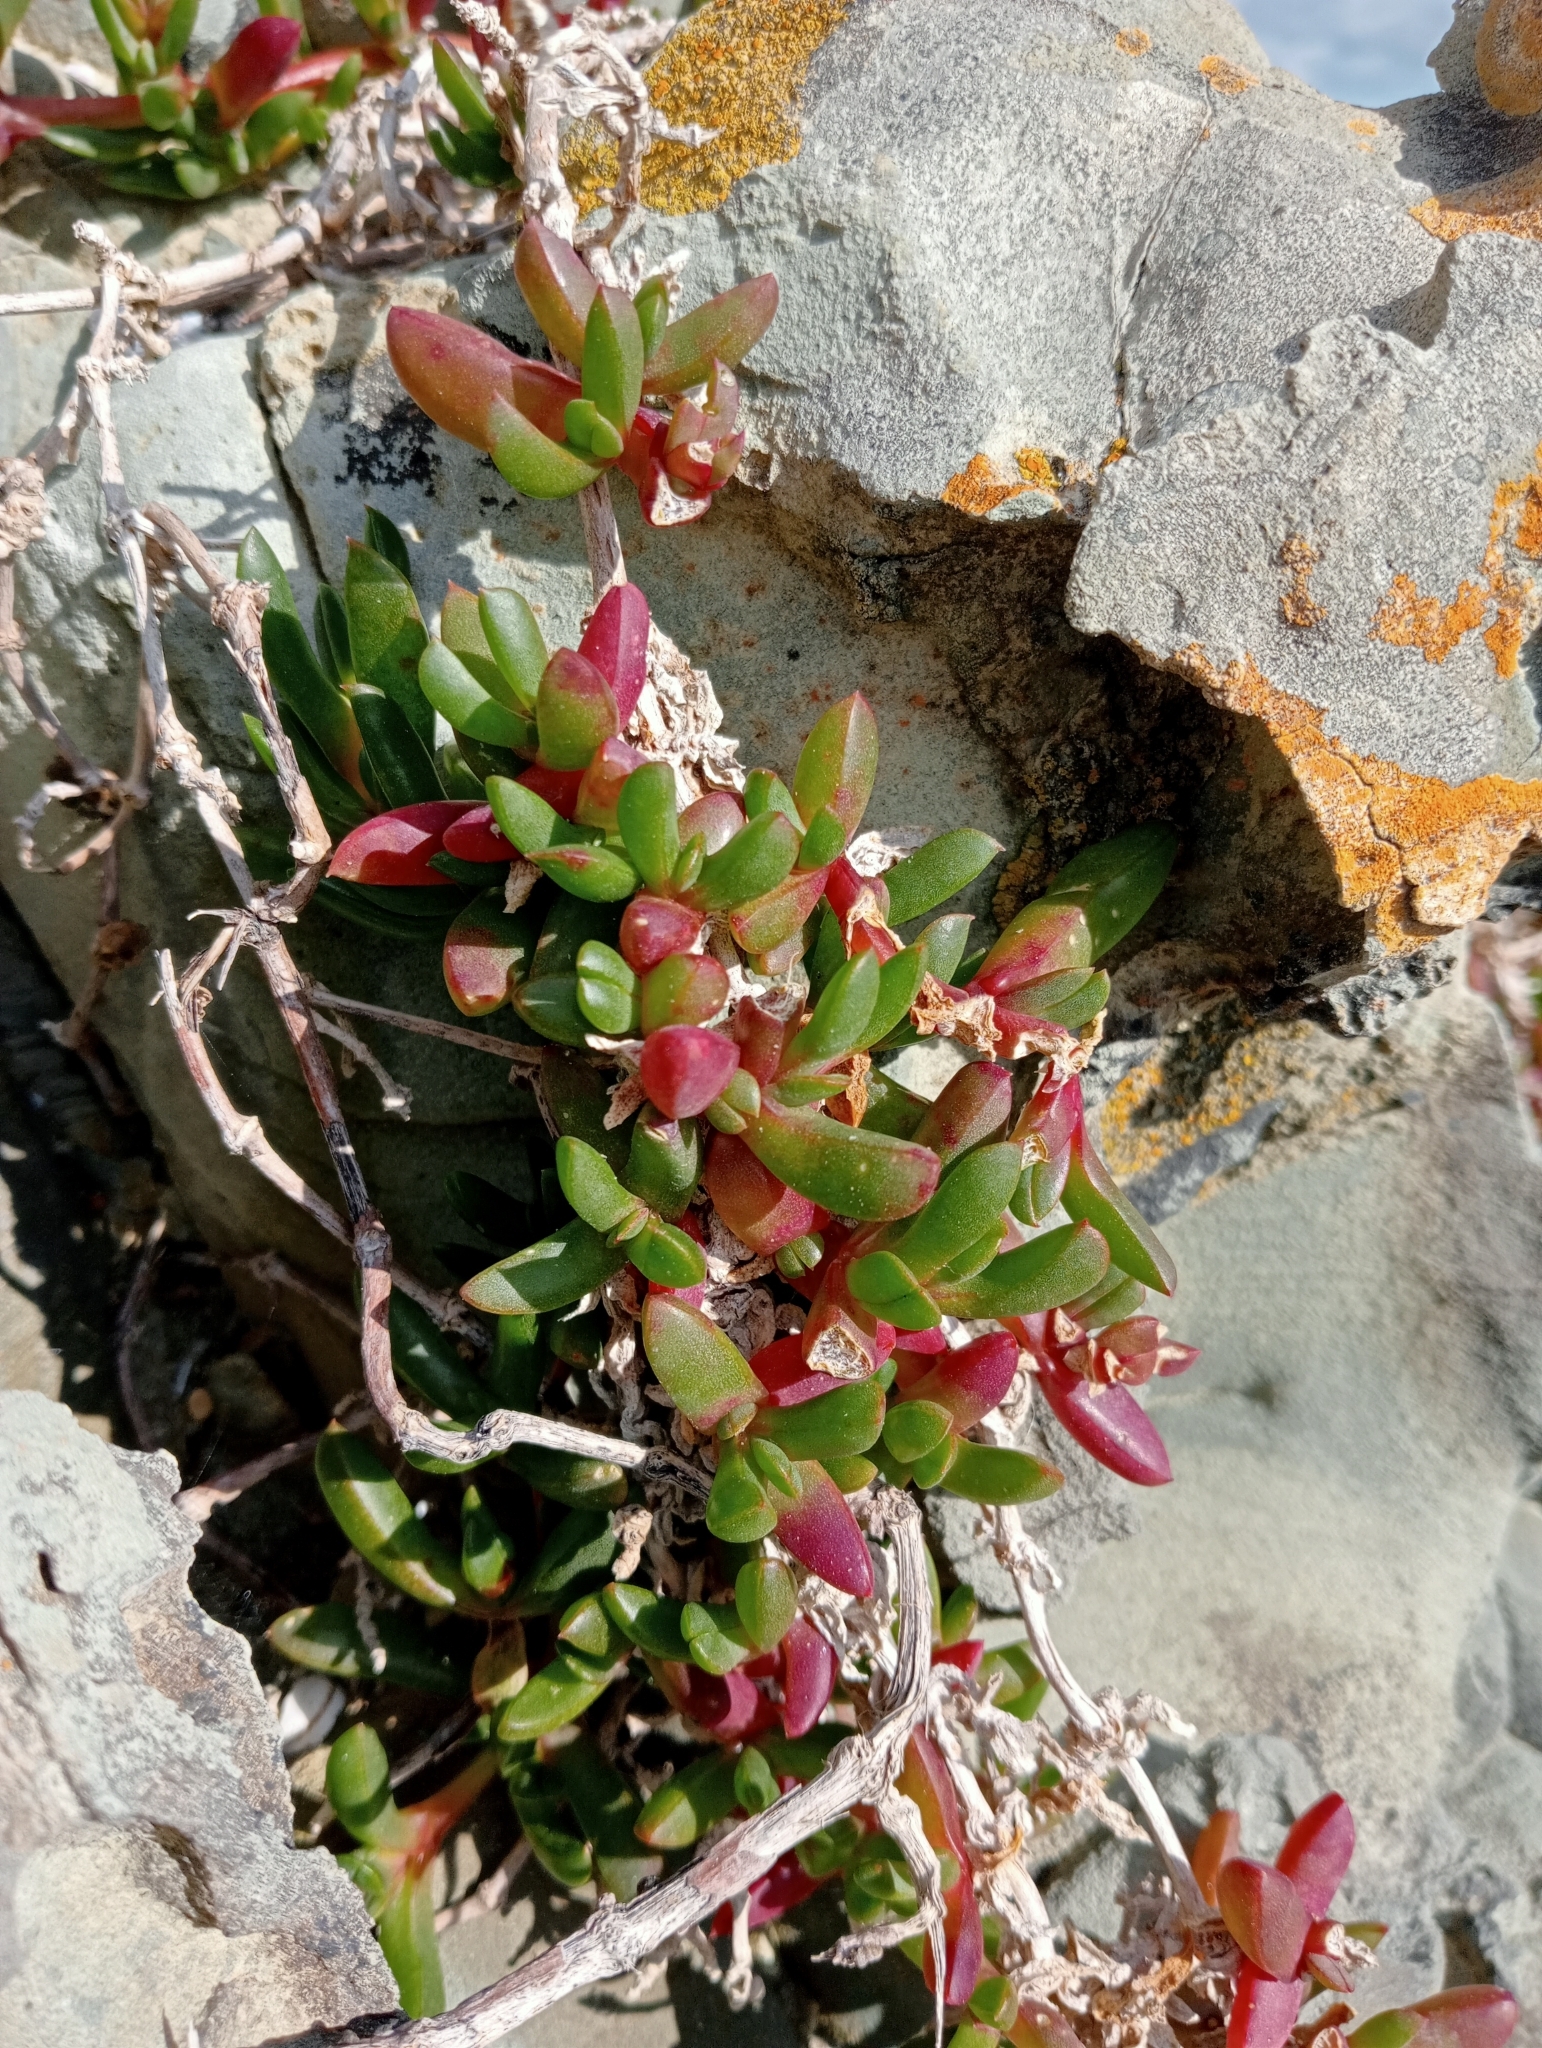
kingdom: Plantae
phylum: Tracheophyta
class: Magnoliopsida
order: Caryophyllales
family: Aizoaceae
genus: Disphyma
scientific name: Disphyma australe
